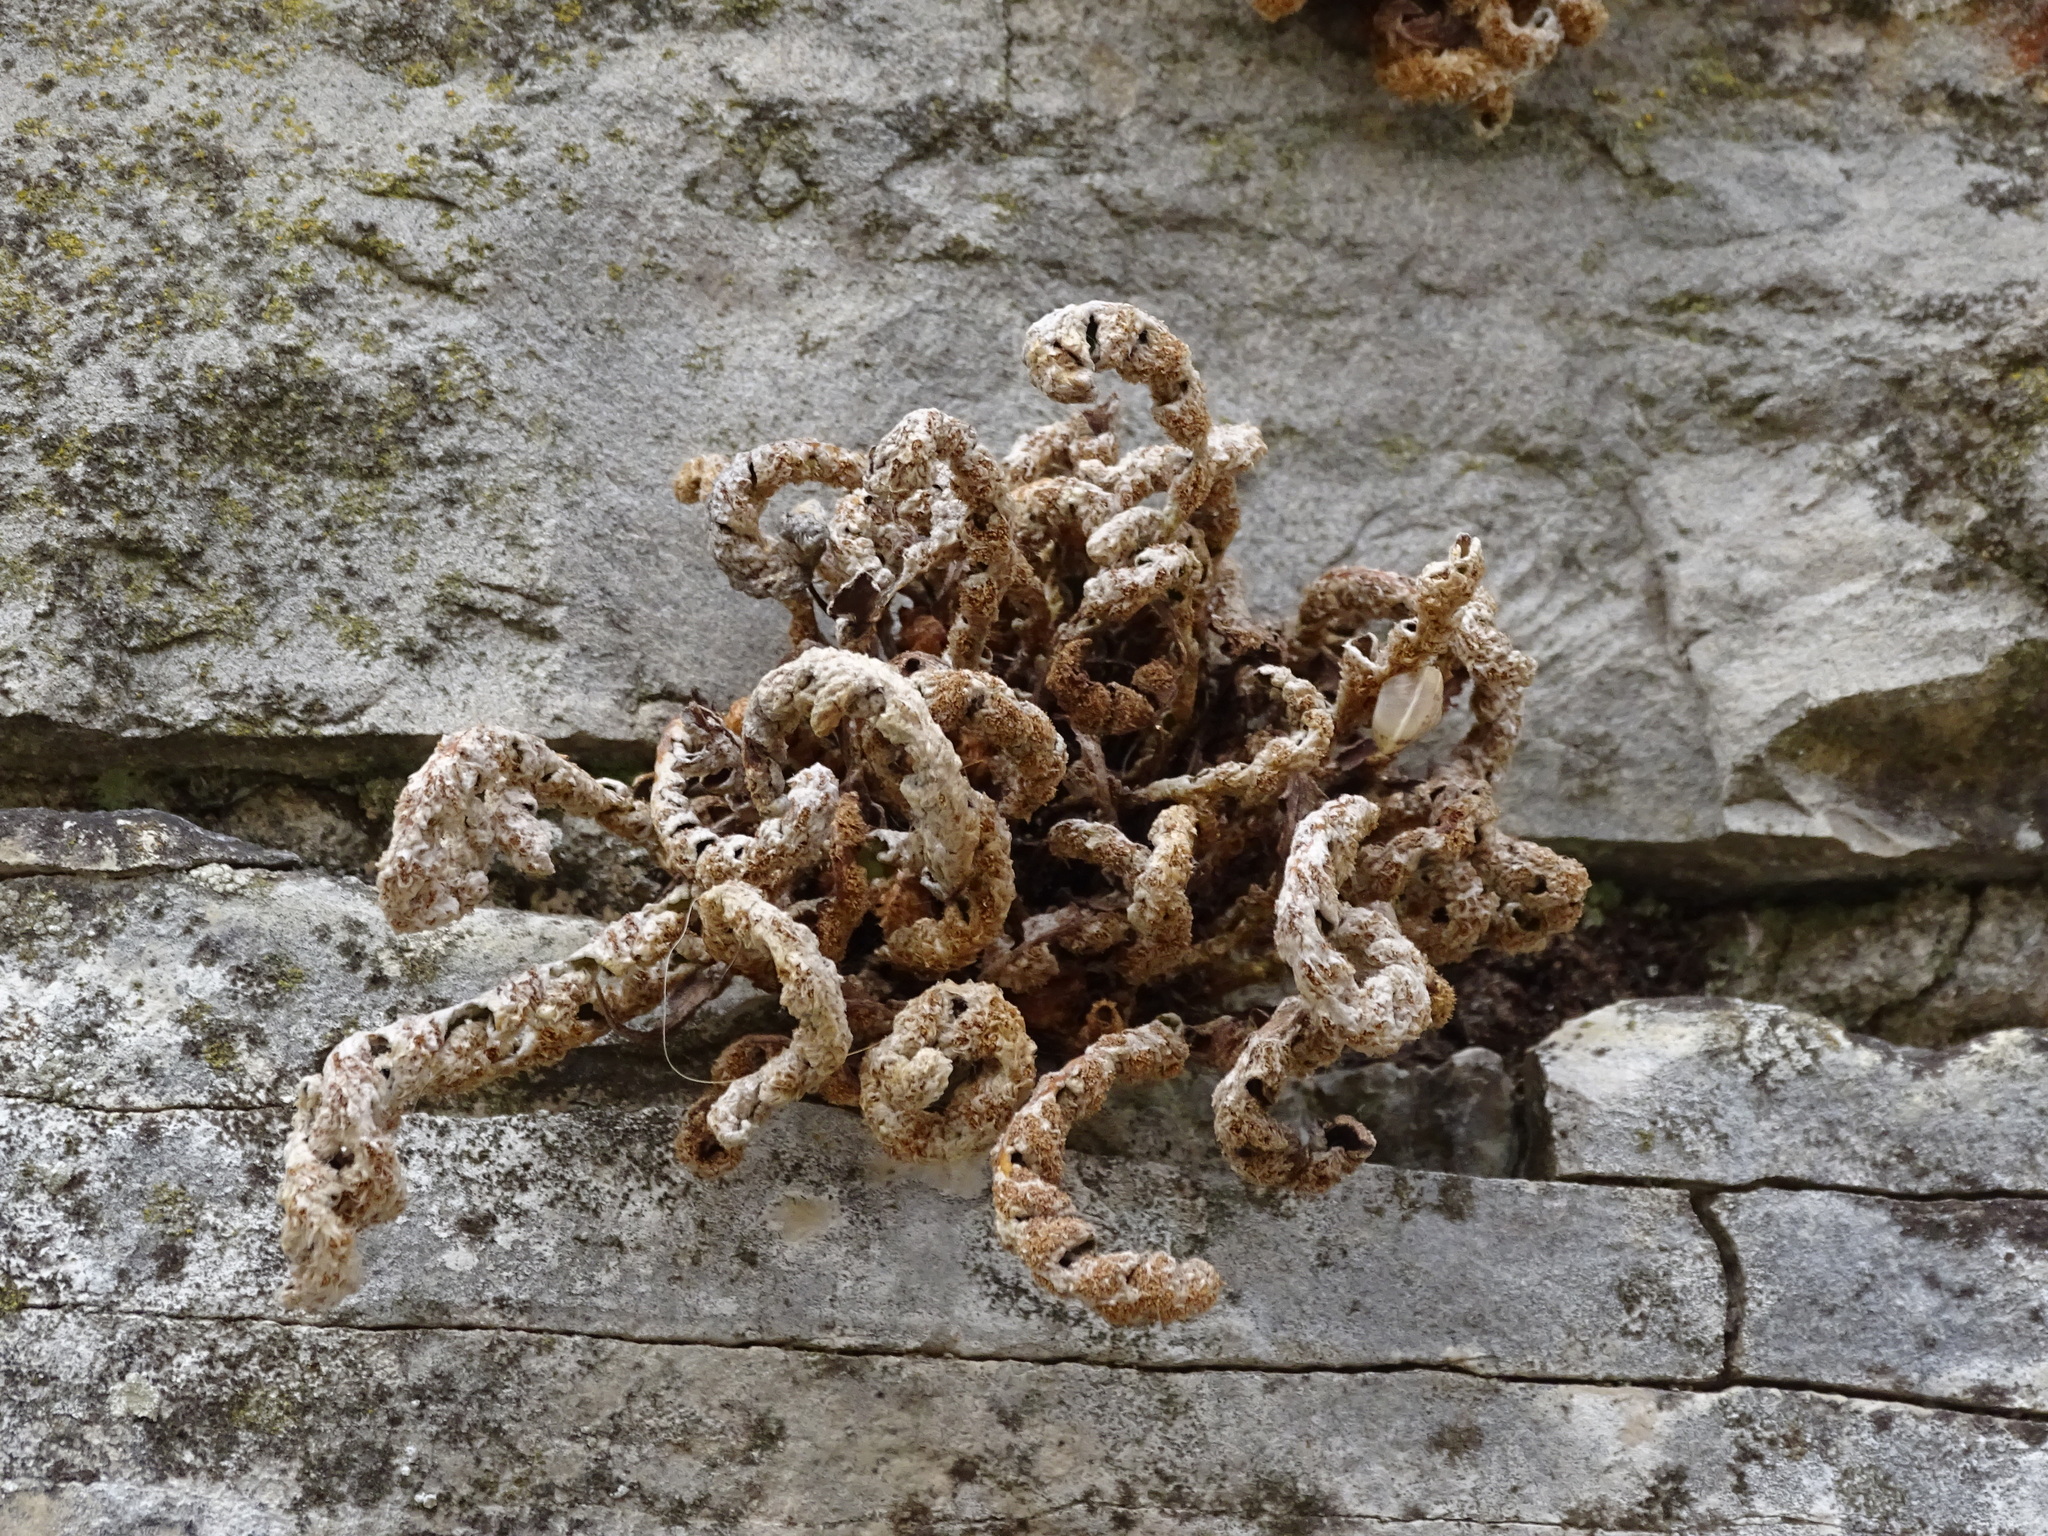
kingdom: Plantae
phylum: Tracheophyta
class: Polypodiopsida
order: Polypodiales
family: Aspleniaceae
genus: Asplenium
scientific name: Asplenium ceterach
